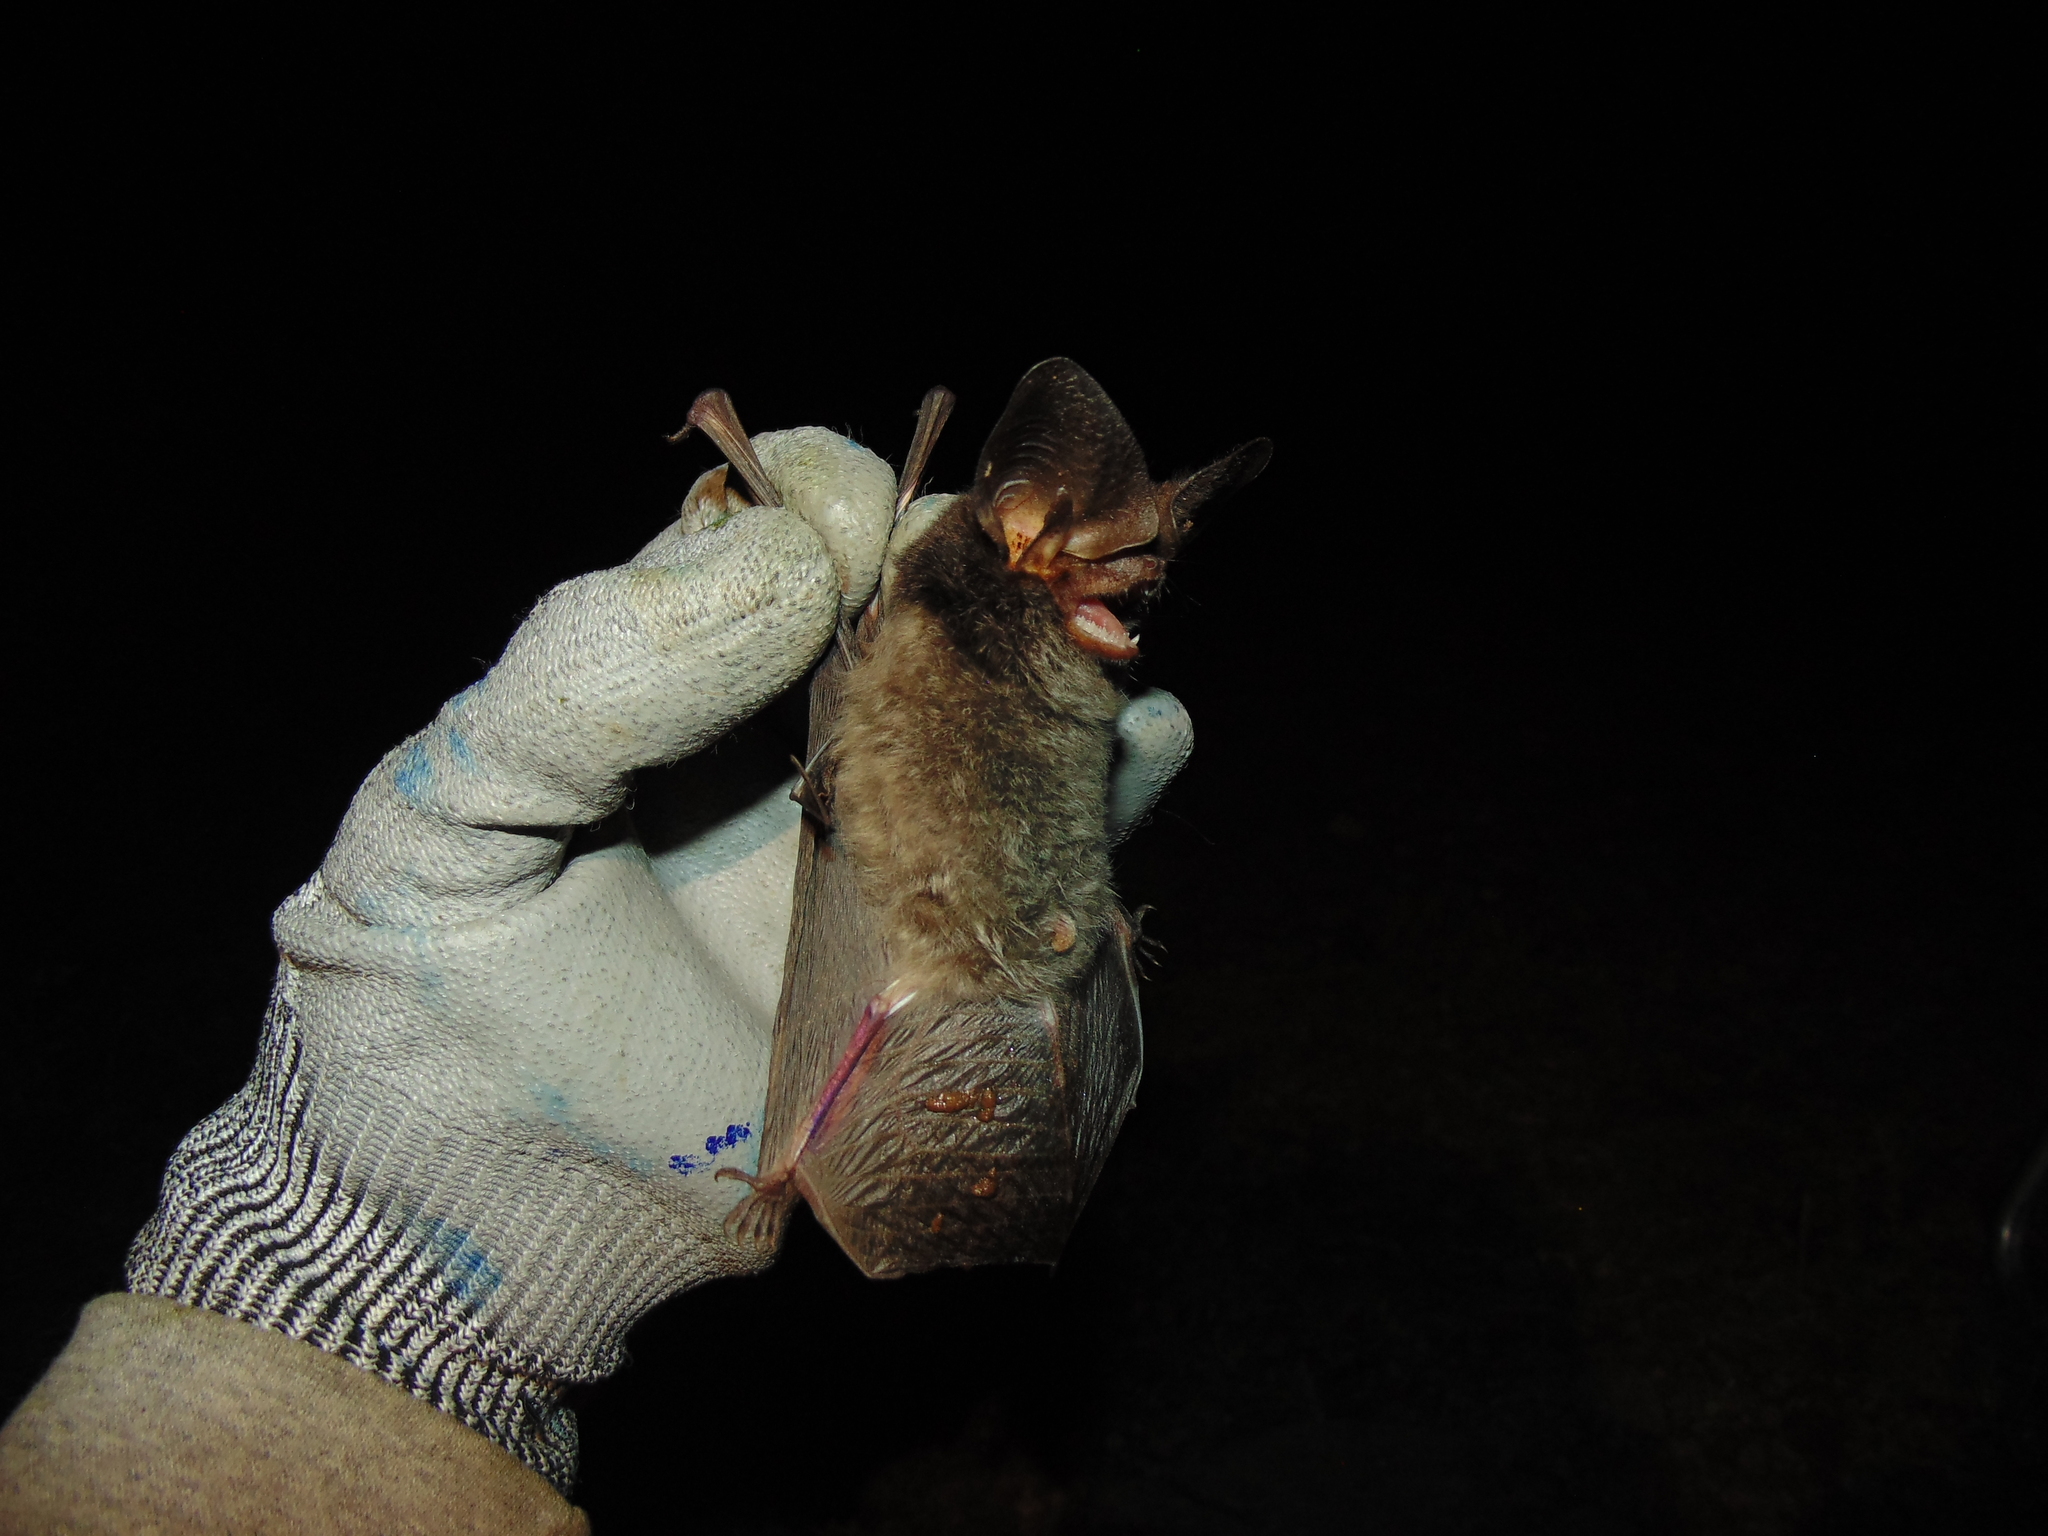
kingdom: Animalia
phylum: Chordata
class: Mammalia
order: Chiroptera
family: Vespertilionidae
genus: Histiotus
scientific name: Histiotus velatus
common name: Tropical big-eared brown bat
